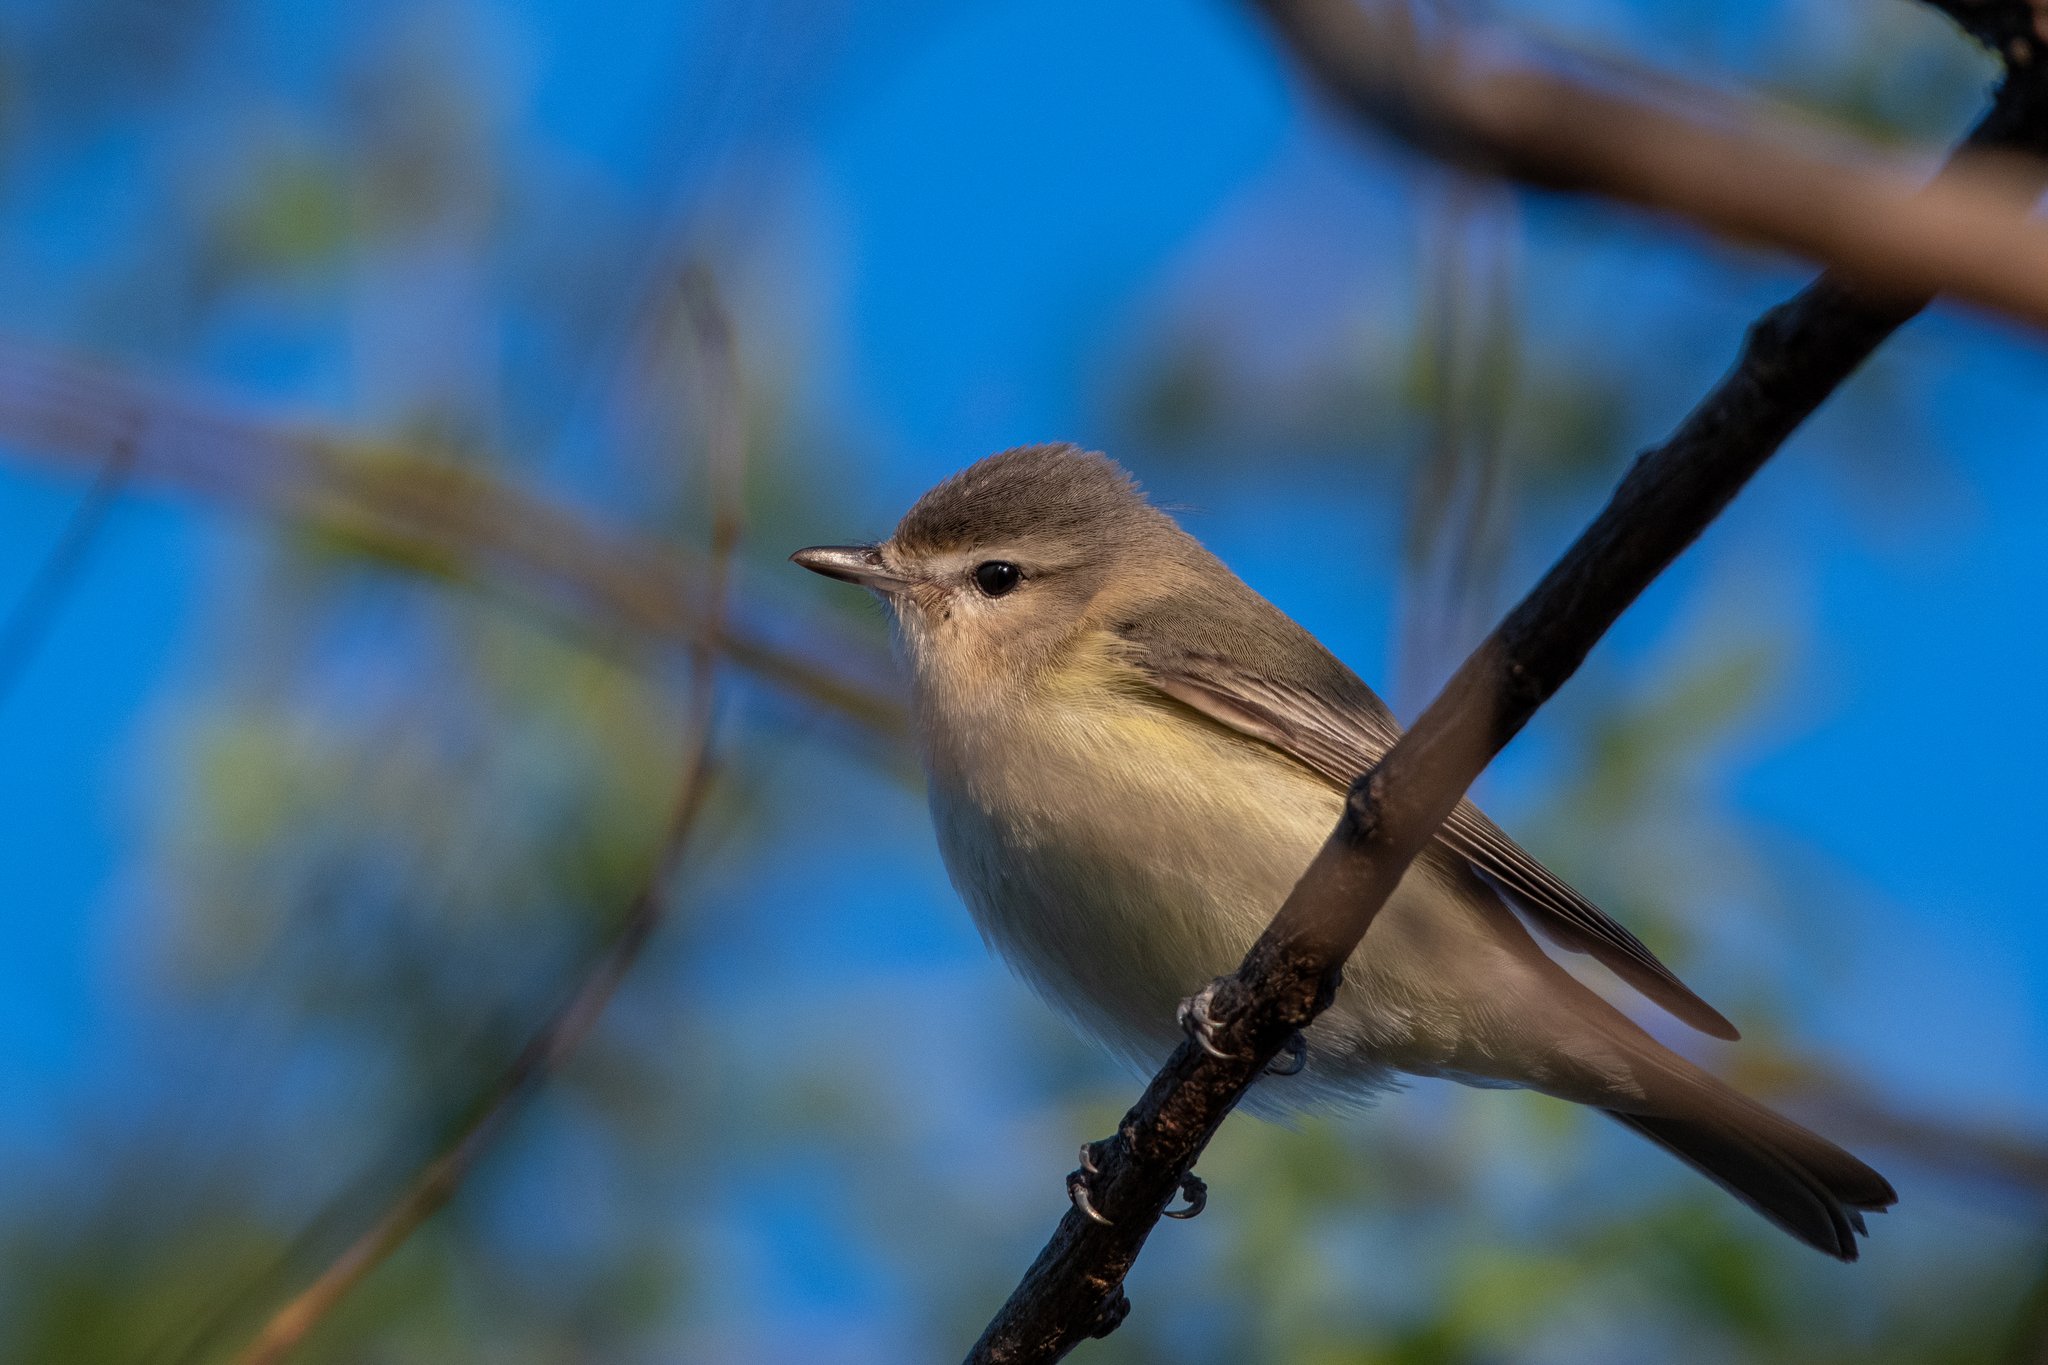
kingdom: Animalia
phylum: Chordata
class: Aves
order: Passeriformes
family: Vireonidae
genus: Vireo
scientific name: Vireo gilvus
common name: Warbling vireo
